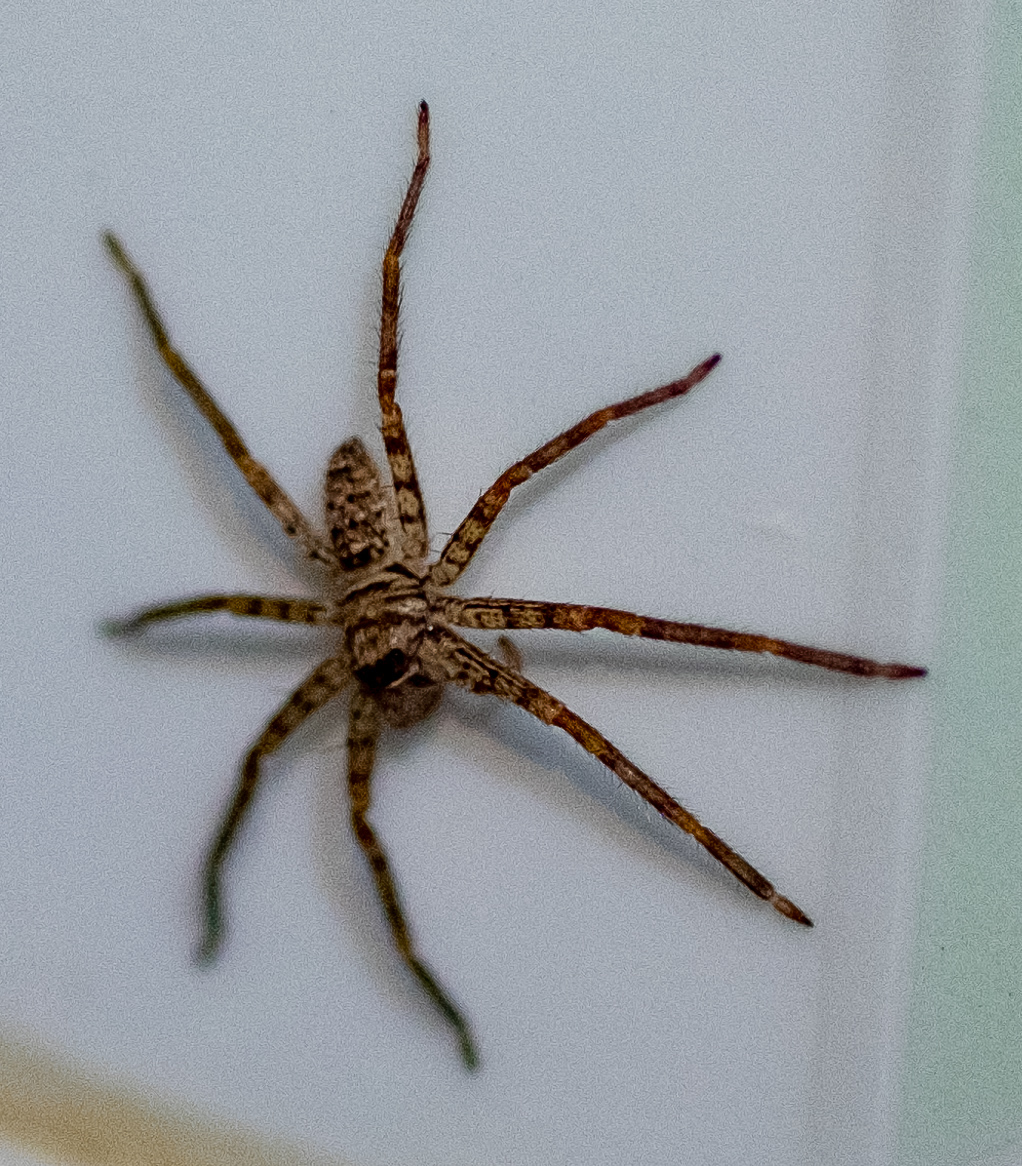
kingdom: Animalia
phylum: Arthropoda
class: Arachnida
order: Araneae
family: Sparassidae
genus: Heteropoda
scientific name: Heteropoda venatoria
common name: Huntsman spider
